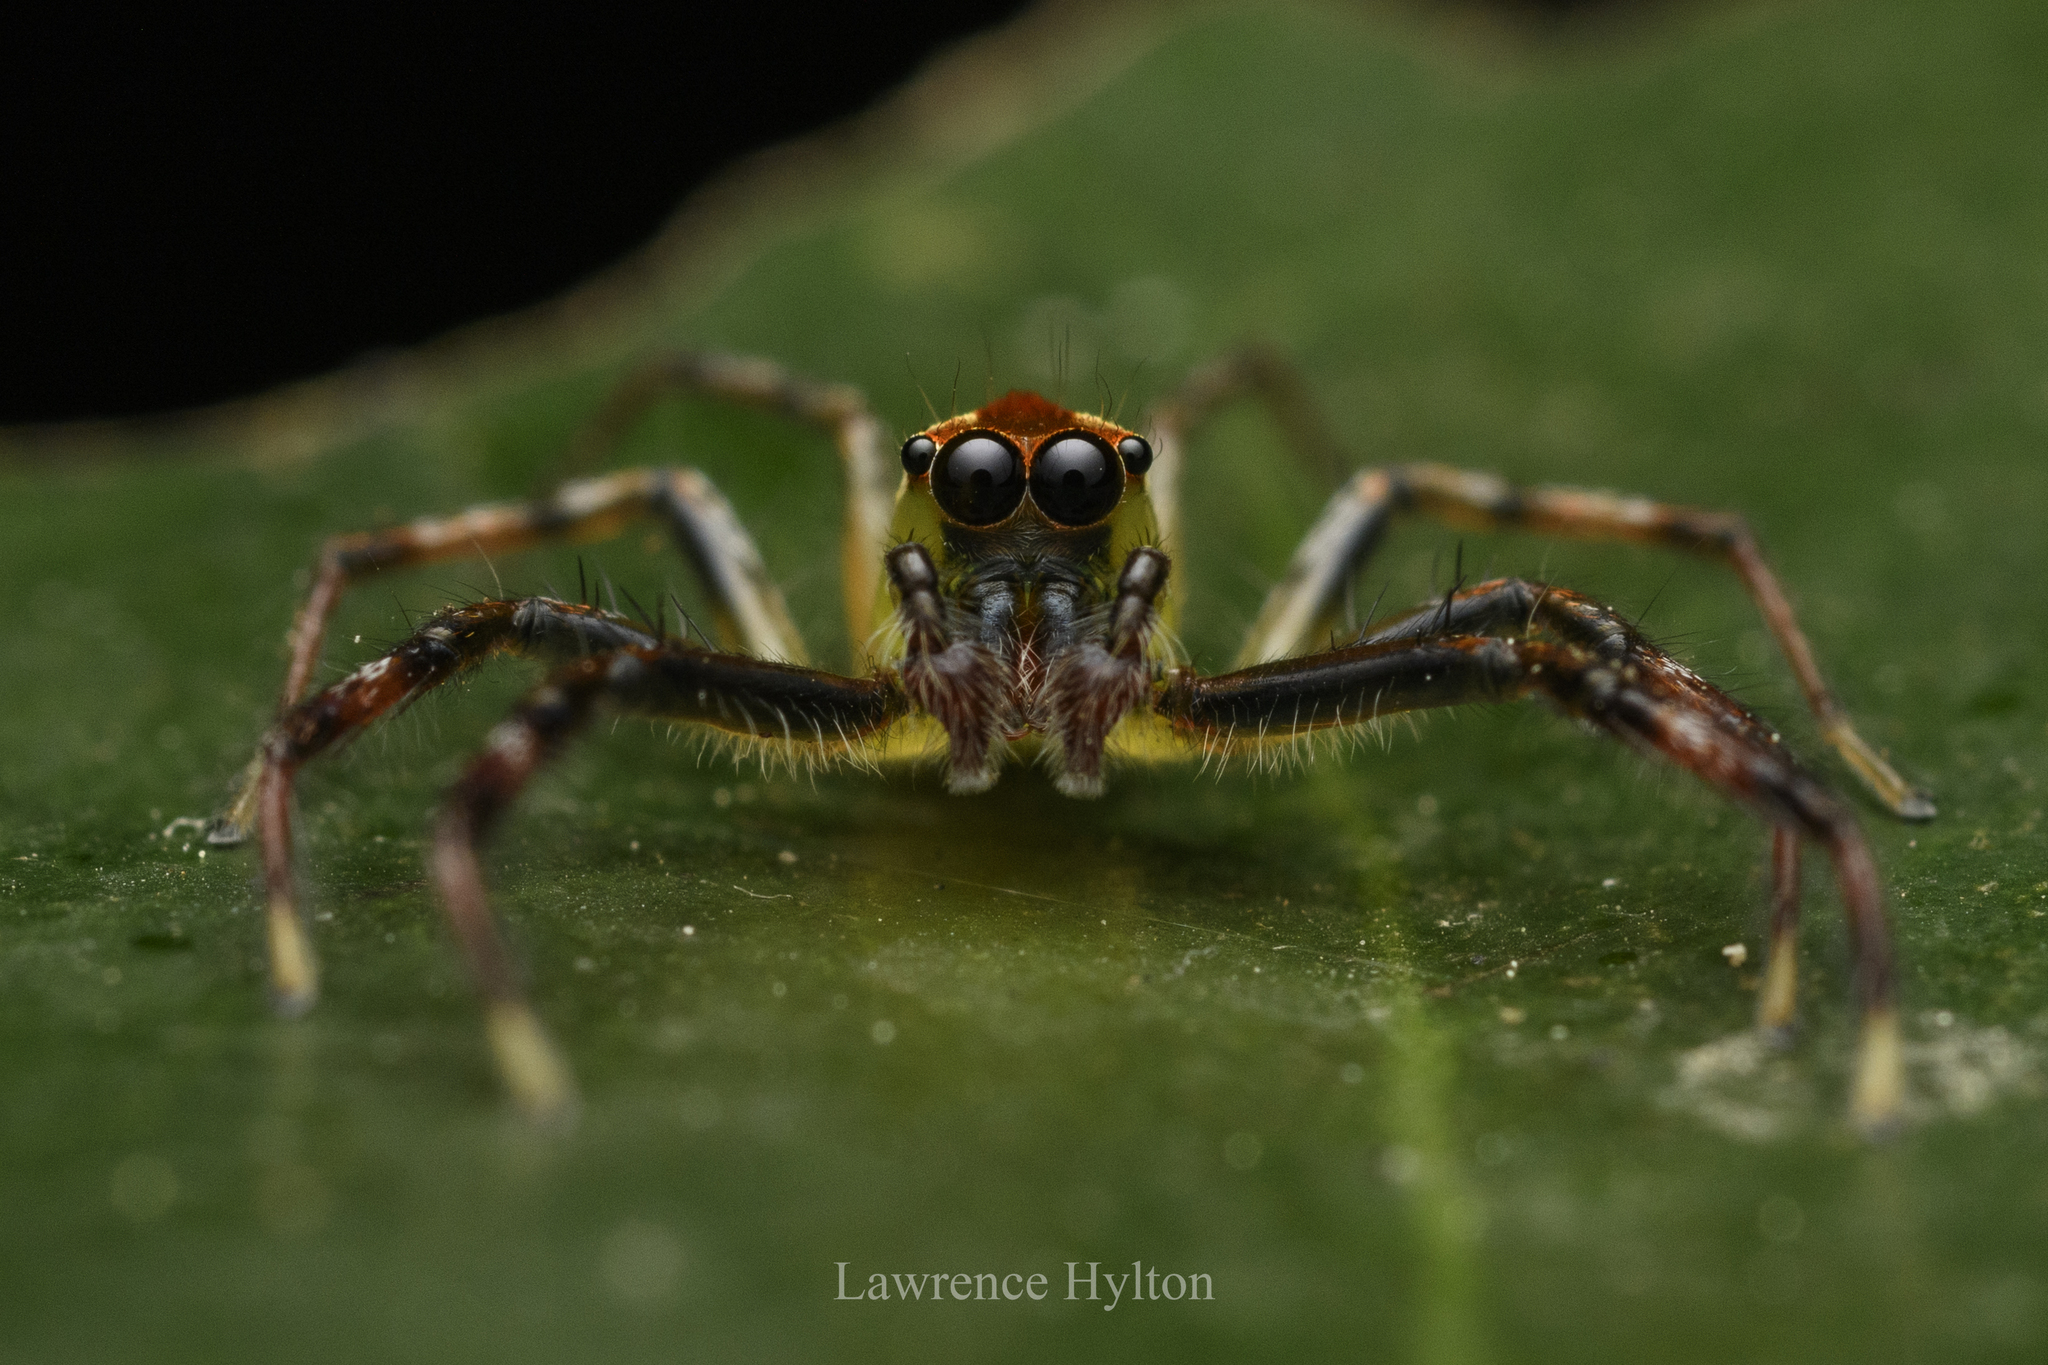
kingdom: Animalia
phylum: Arthropoda
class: Arachnida
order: Araneae
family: Salticidae
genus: Epeus
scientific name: Epeus glorius
